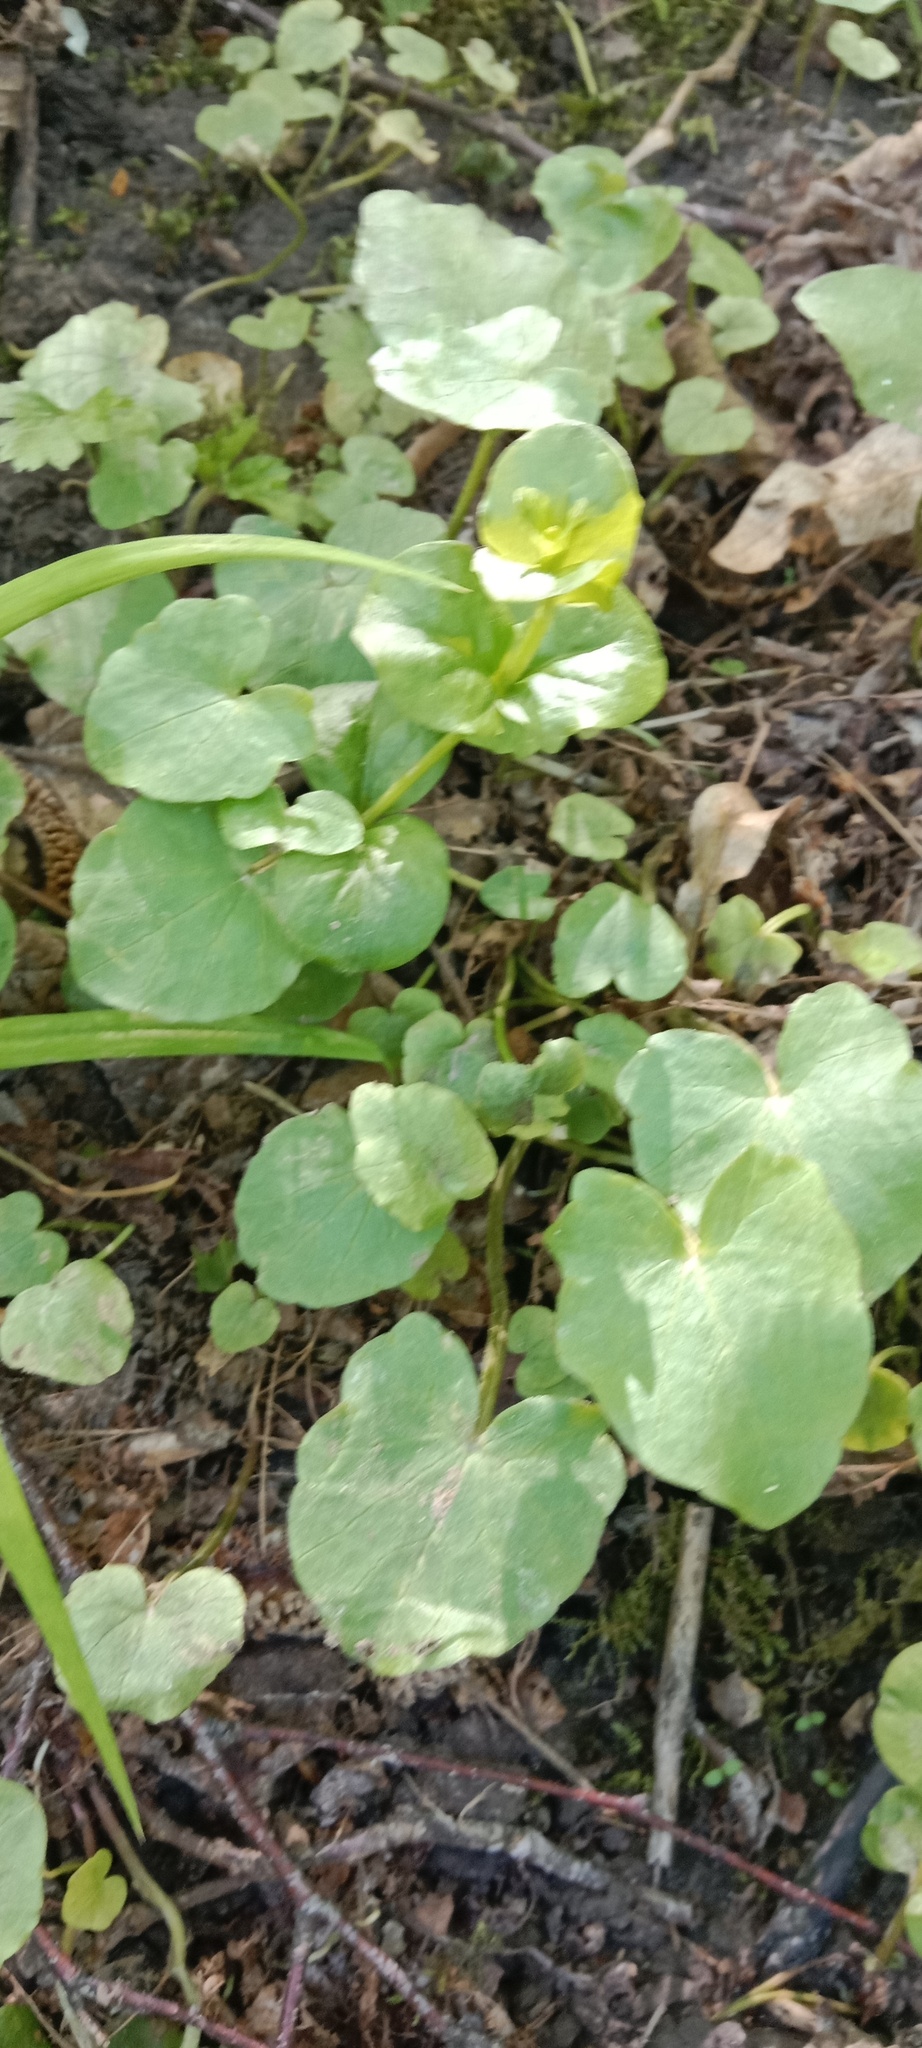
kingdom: Plantae
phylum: Tracheophyta
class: Magnoliopsida
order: Ranunculales
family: Ranunculaceae
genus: Ficaria
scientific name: Ficaria verna
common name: Lesser celandine
